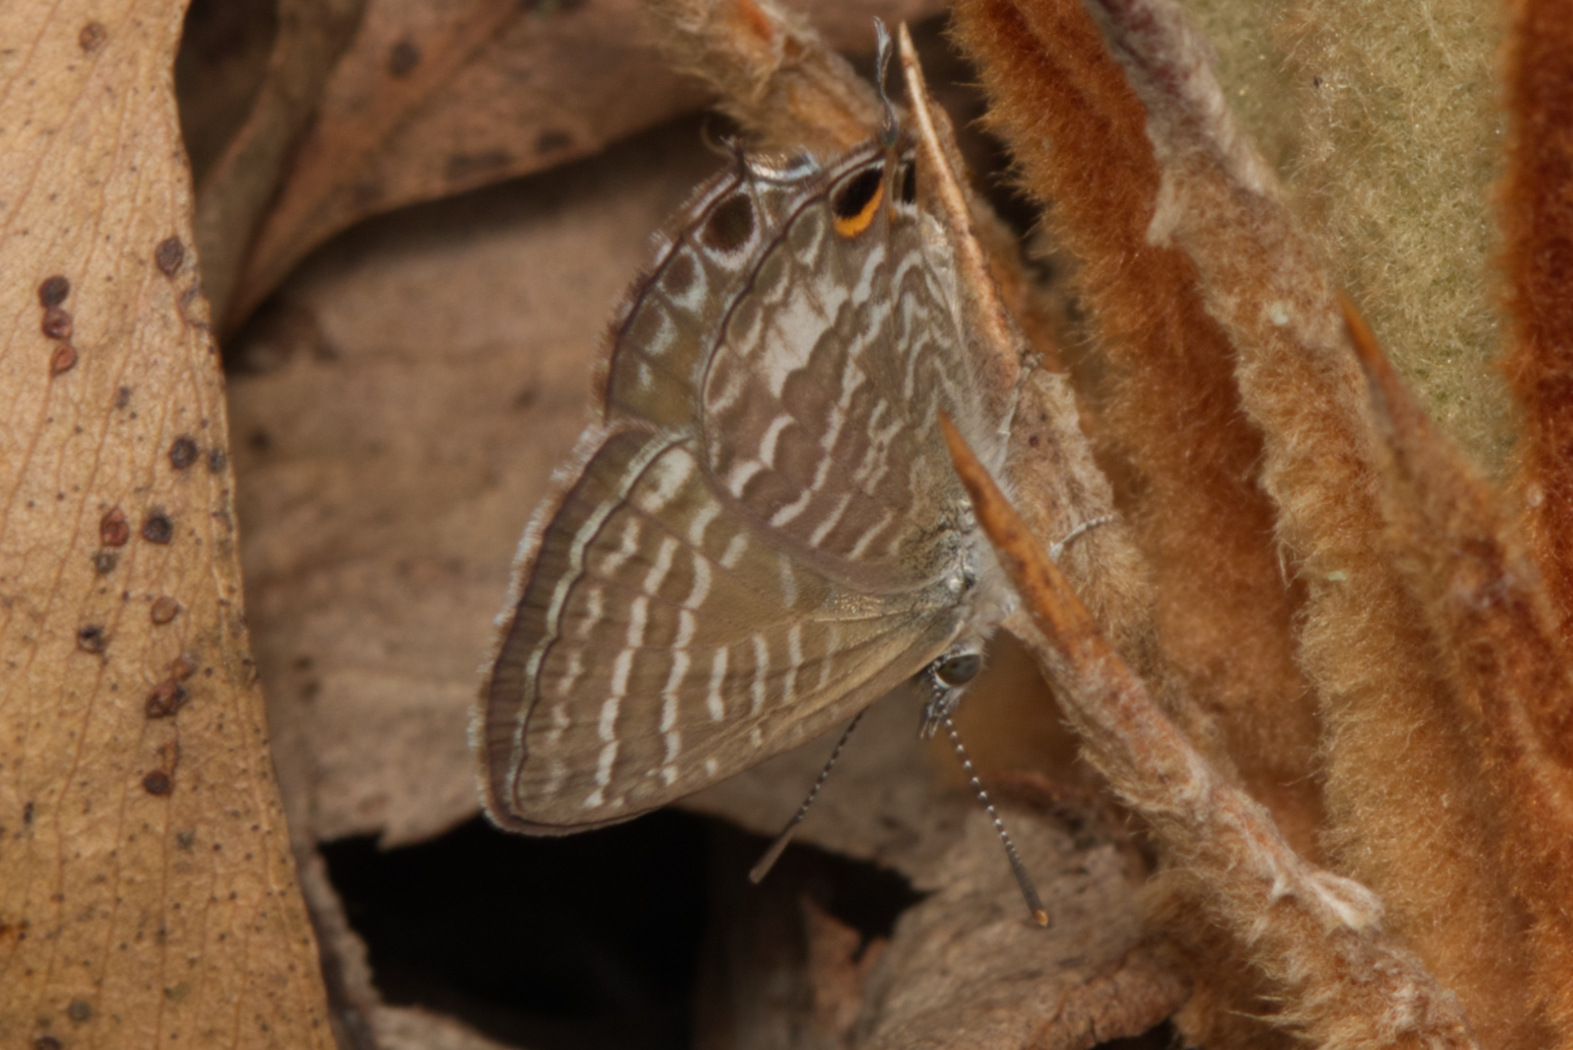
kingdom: Animalia
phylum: Arthropoda
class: Insecta
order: Lepidoptera
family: Lycaenidae
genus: Theclinesthes
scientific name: Theclinesthes onycha
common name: Cycad blue
